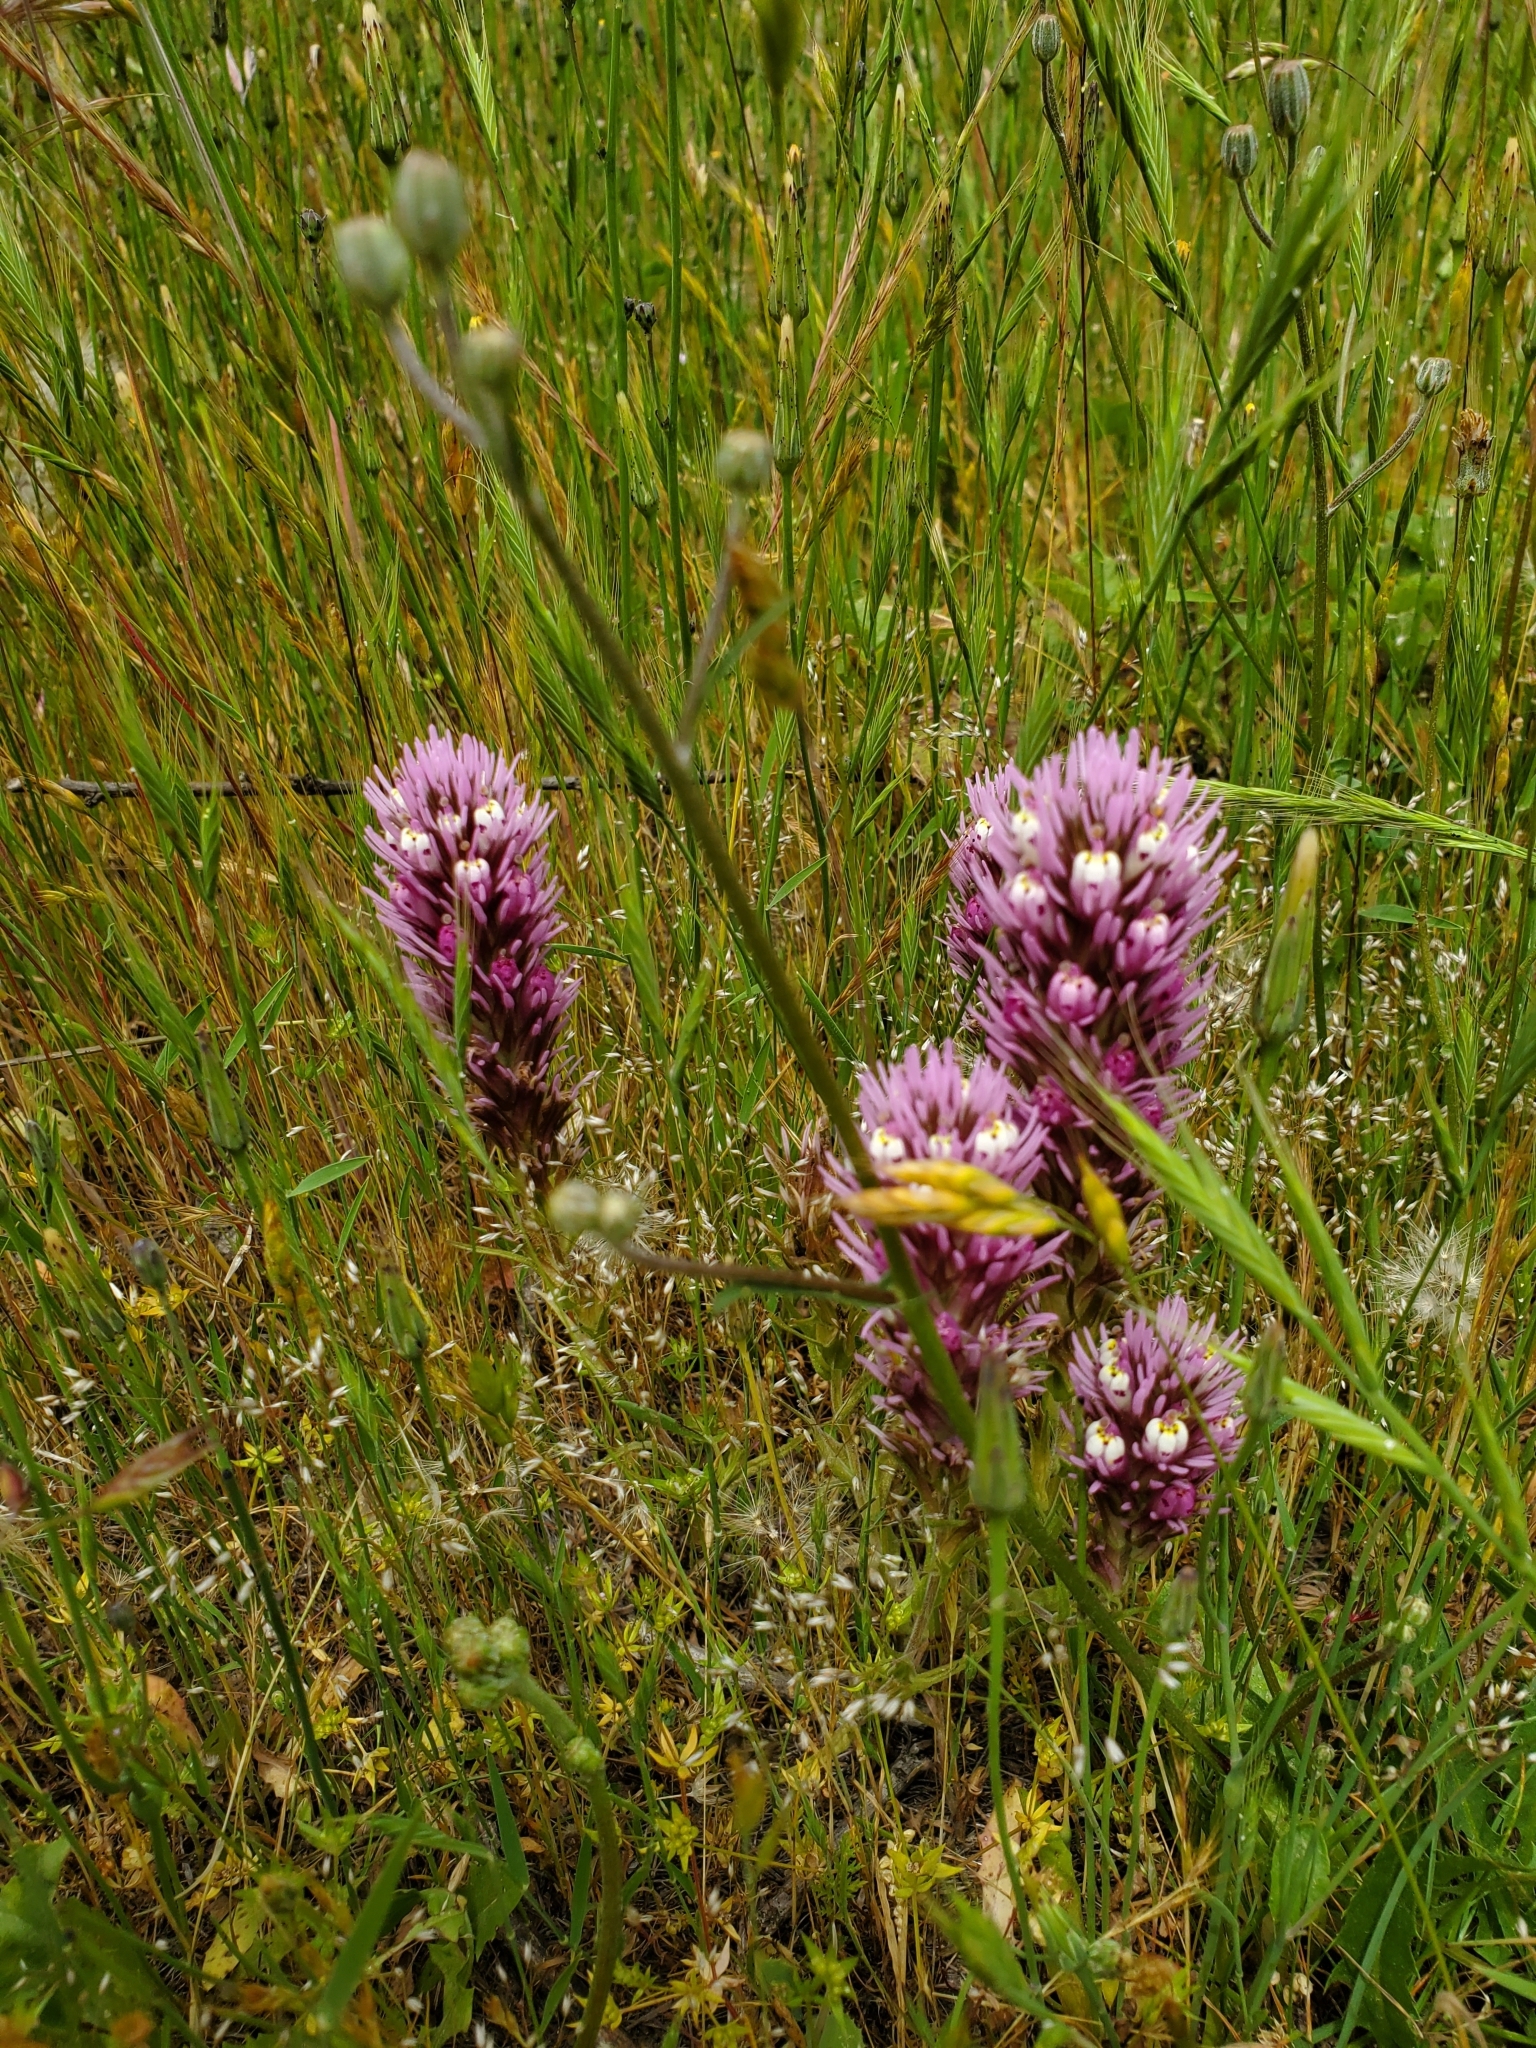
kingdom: Plantae
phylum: Tracheophyta
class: Magnoliopsida
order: Lamiales
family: Orobanchaceae
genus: Castilleja
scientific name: Castilleja densiflora
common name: Dense-flower indian paintbrush
